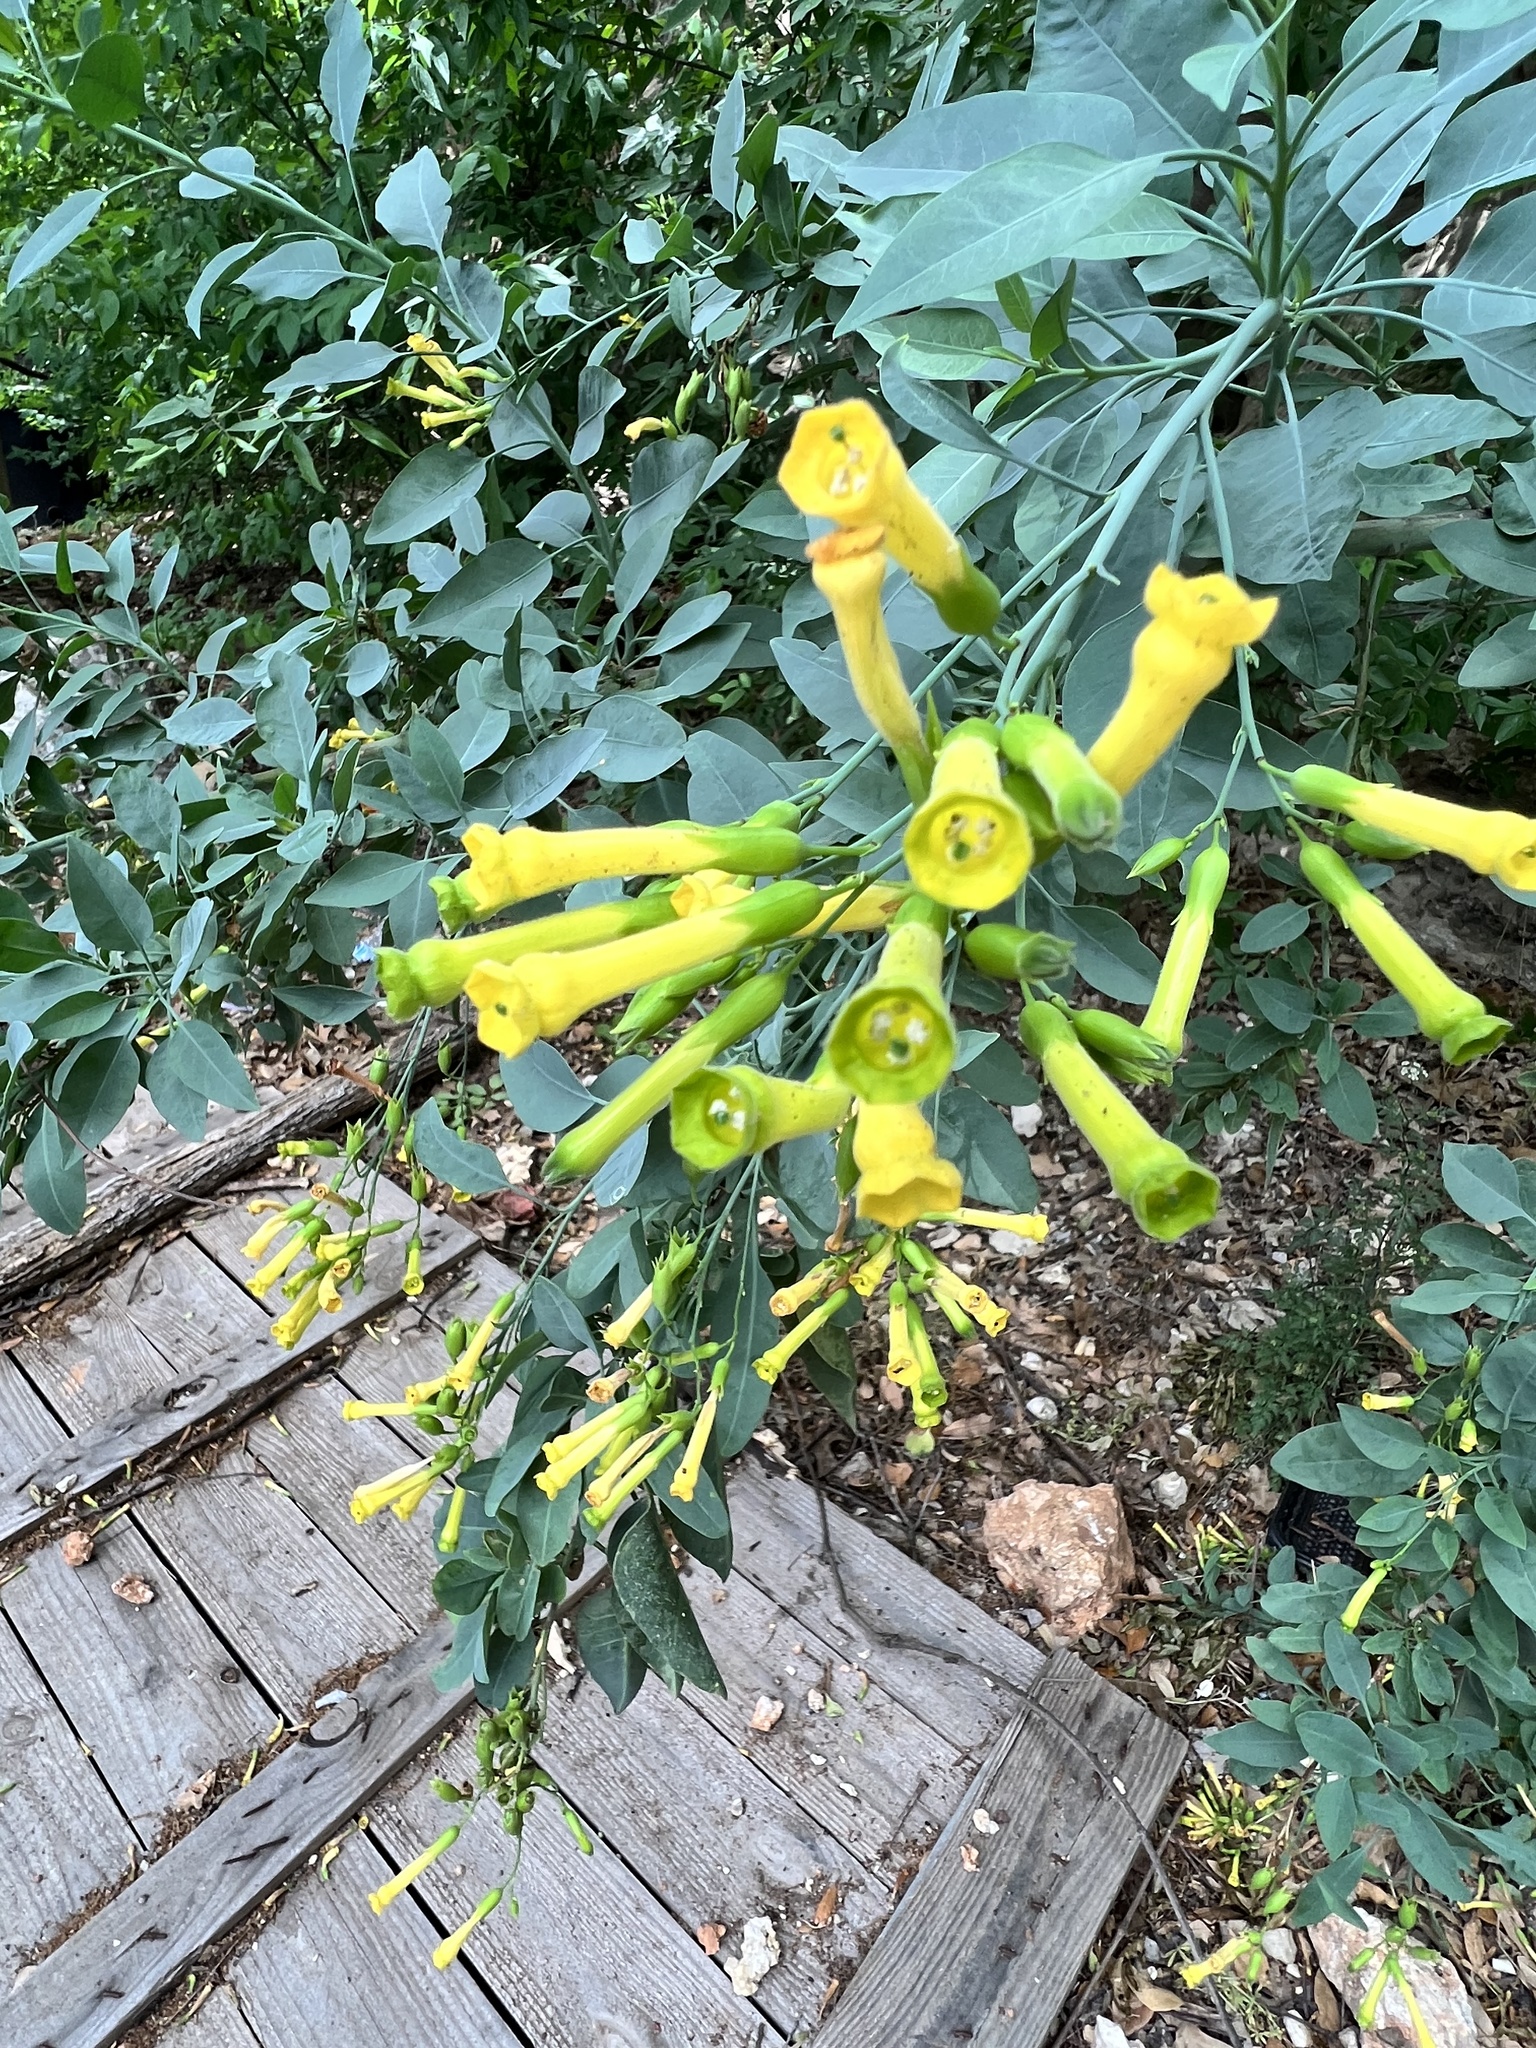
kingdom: Plantae
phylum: Tracheophyta
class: Magnoliopsida
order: Solanales
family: Solanaceae
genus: Nicotiana
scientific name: Nicotiana glauca
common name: Tree tobacco
